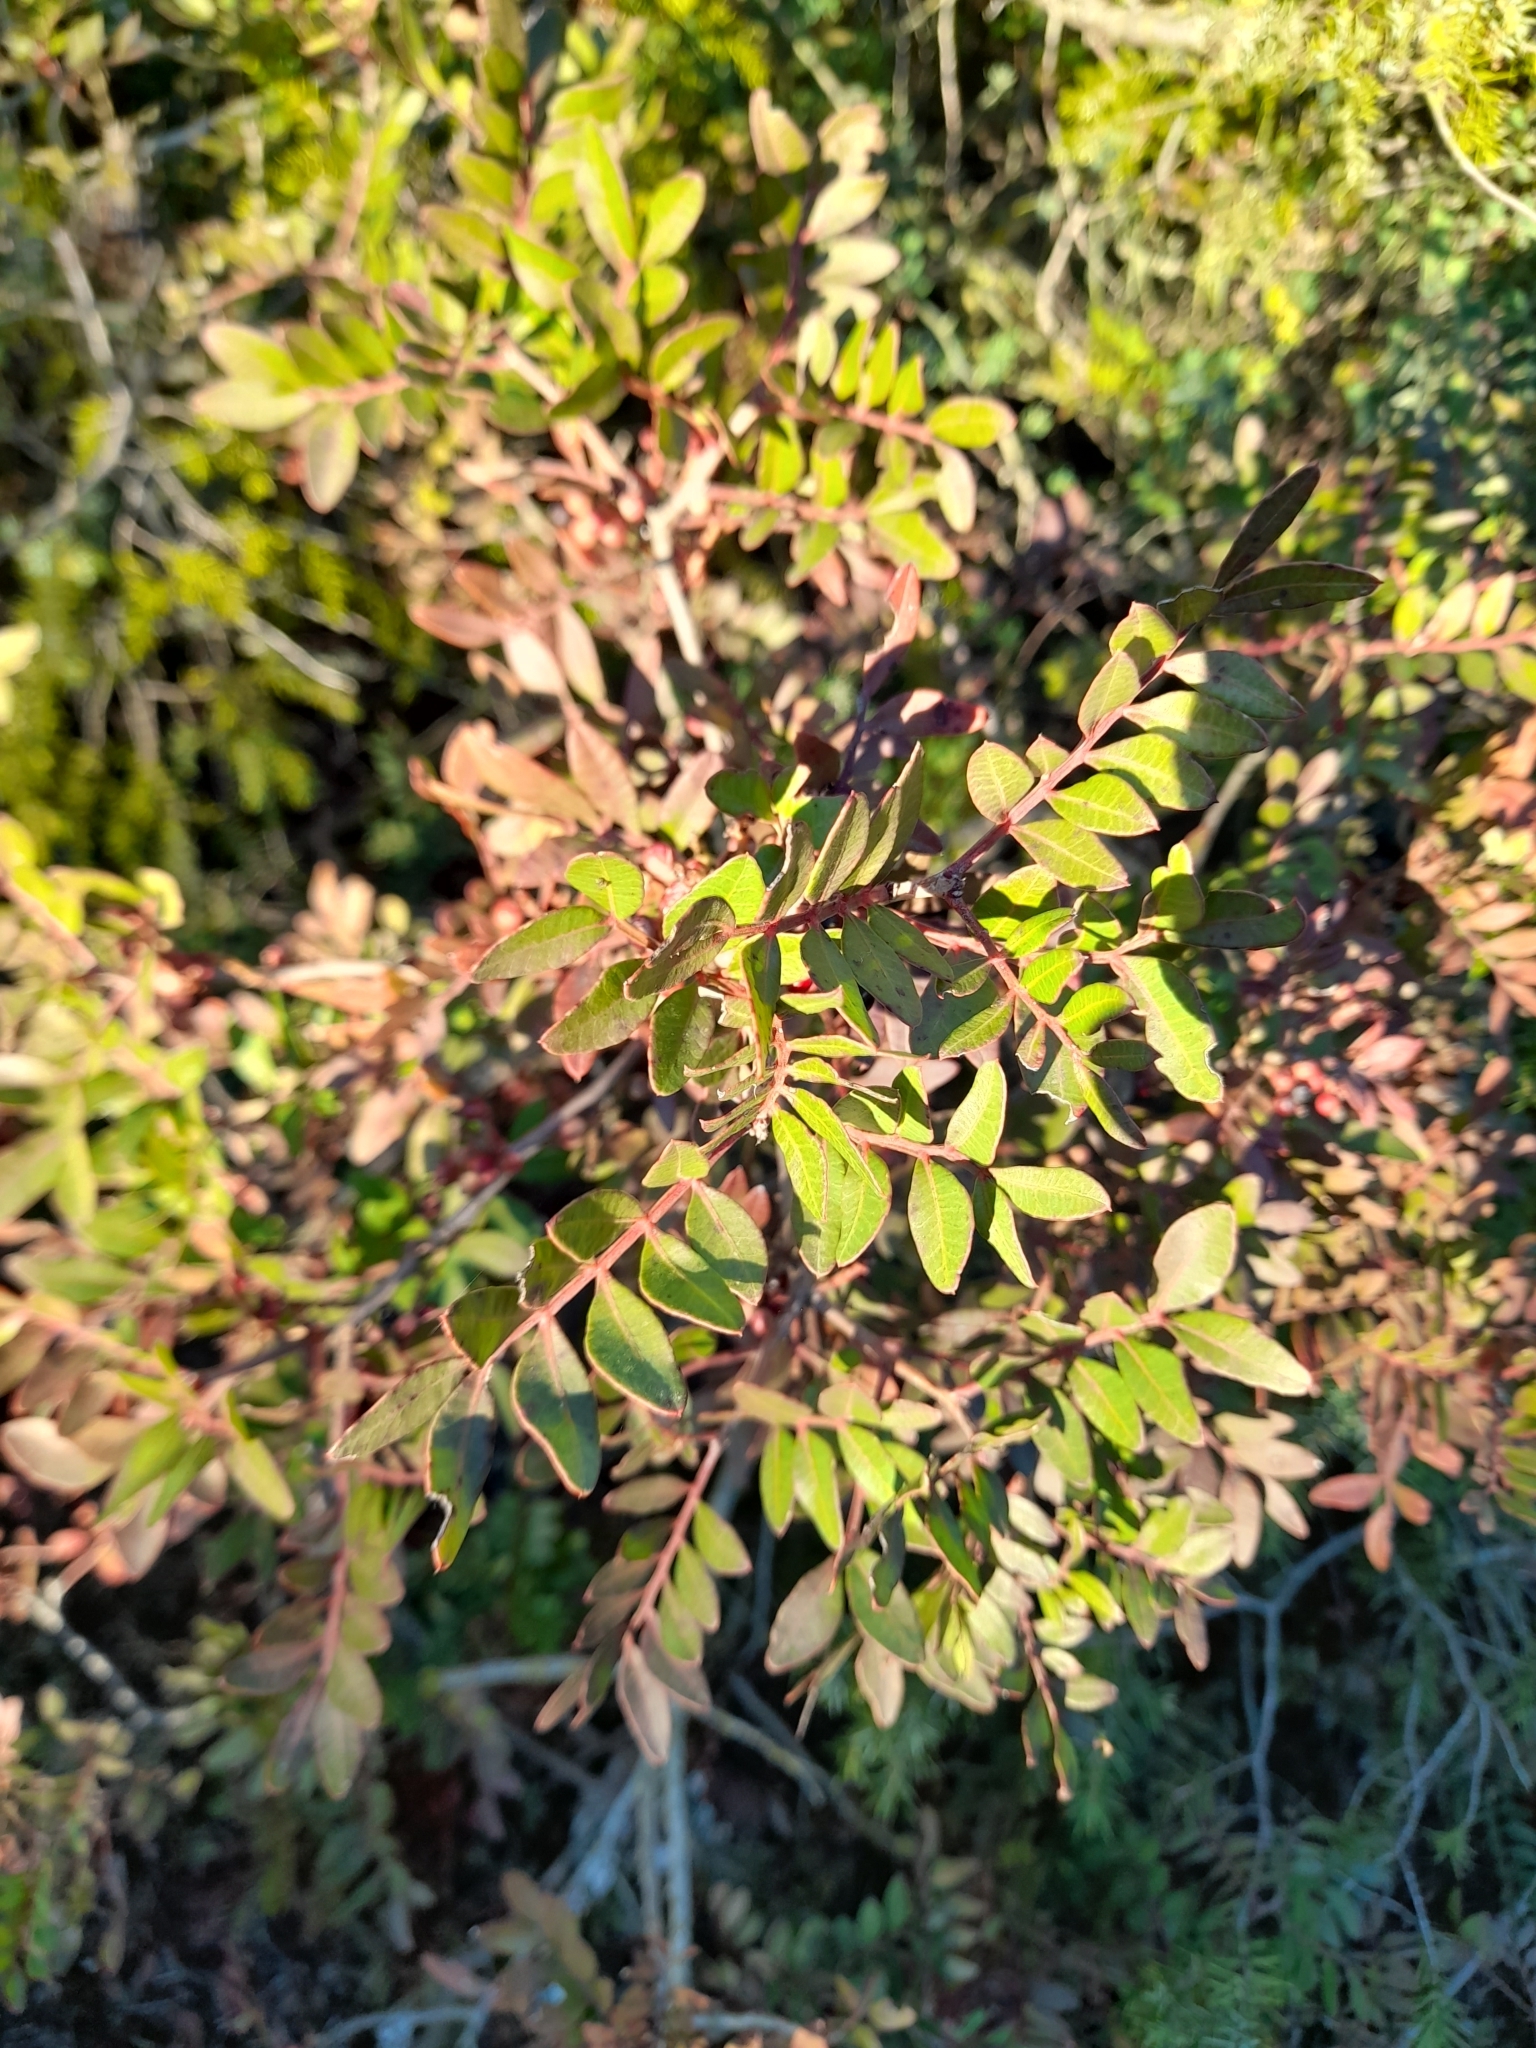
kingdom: Plantae
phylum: Tracheophyta
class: Magnoliopsida
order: Sapindales
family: Anacardiaceae
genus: Pistacia
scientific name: Pistacia lentiscus
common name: Lentisk
